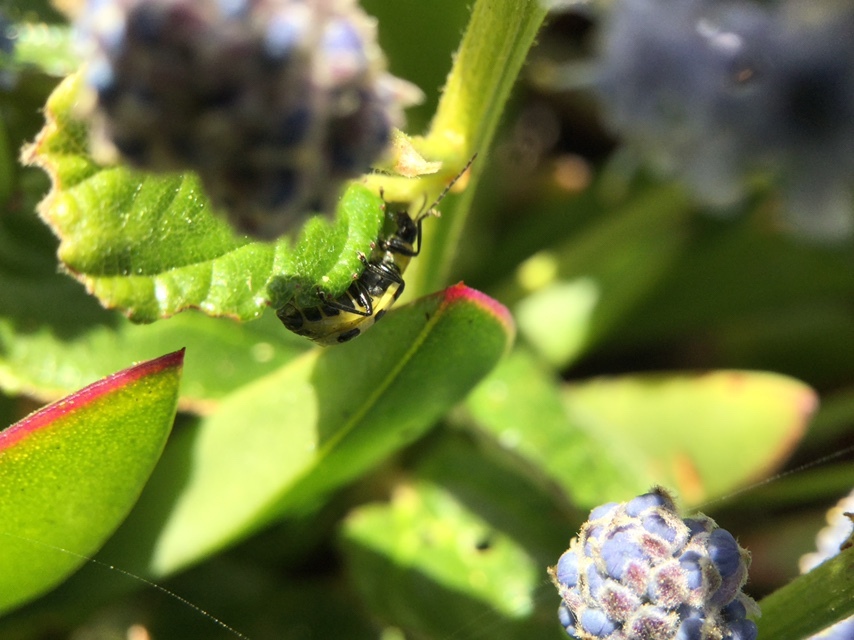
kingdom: Animalia
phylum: Arthropoda
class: Insecta
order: Coleoptera
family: Chrysomelidae
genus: Diabrotica
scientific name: Diabrotica undecimpunctata
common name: Spotted cucumber beetle
